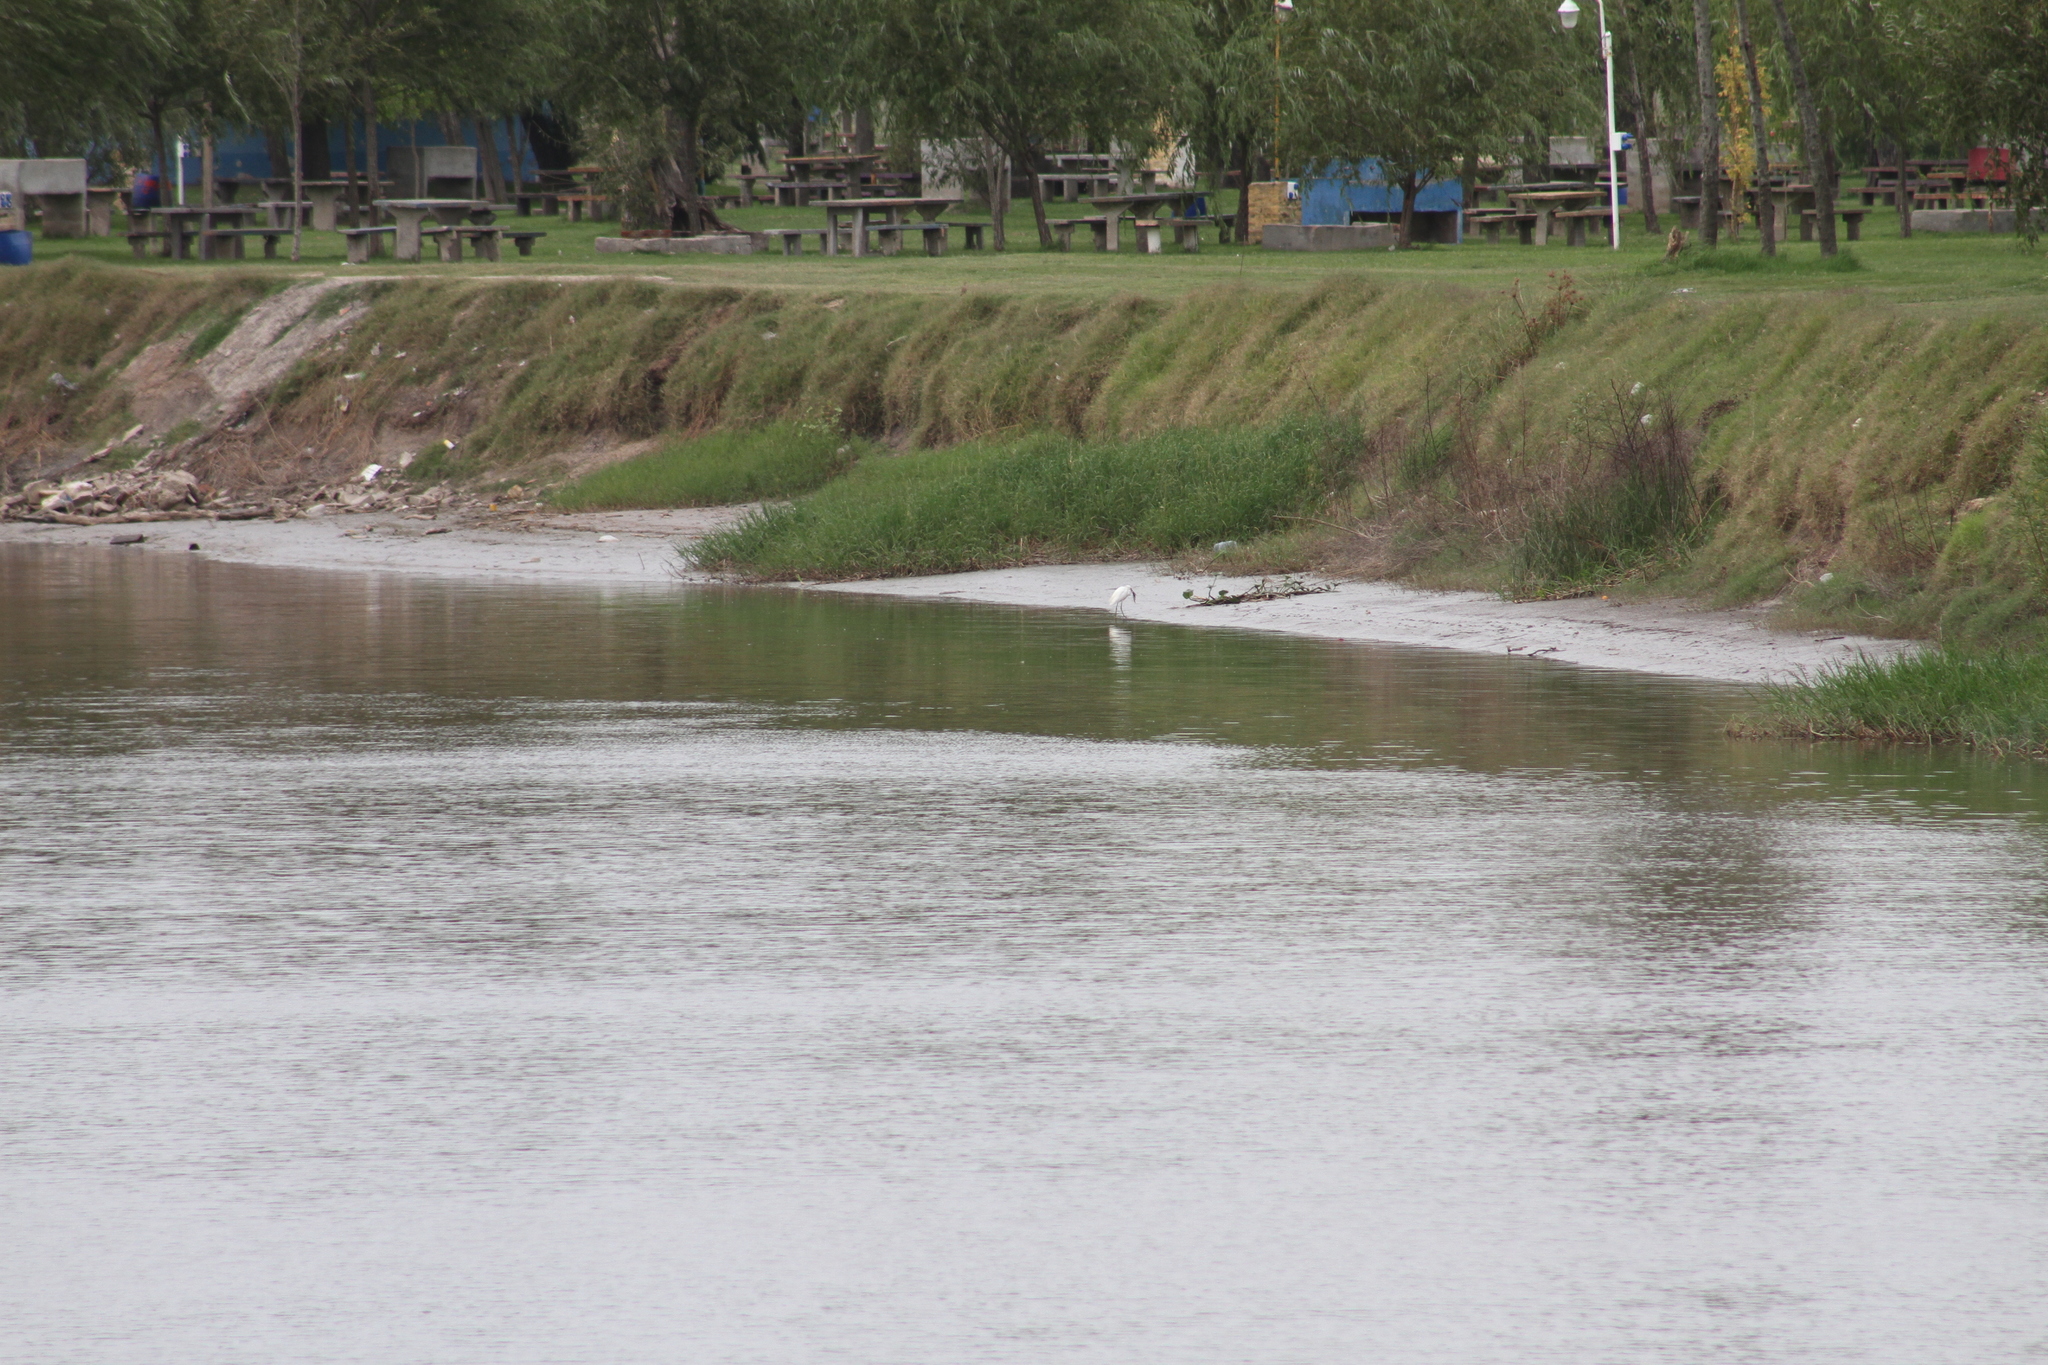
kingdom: Animalia
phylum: Chordata
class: Aves
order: Pelecaniformes
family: Ardeidae
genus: Egretta
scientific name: Egretta thula
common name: Snowy egret
